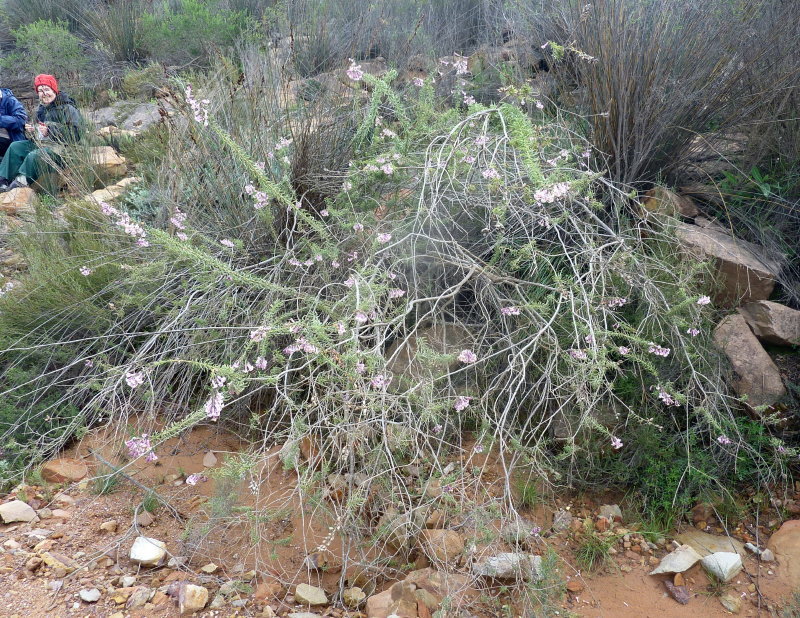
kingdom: Plantae
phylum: Tracheophyta
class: Magnoliopsida
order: Lamiales
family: Scrophulariaceae
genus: Freylinia
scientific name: Freylinia densiflora
